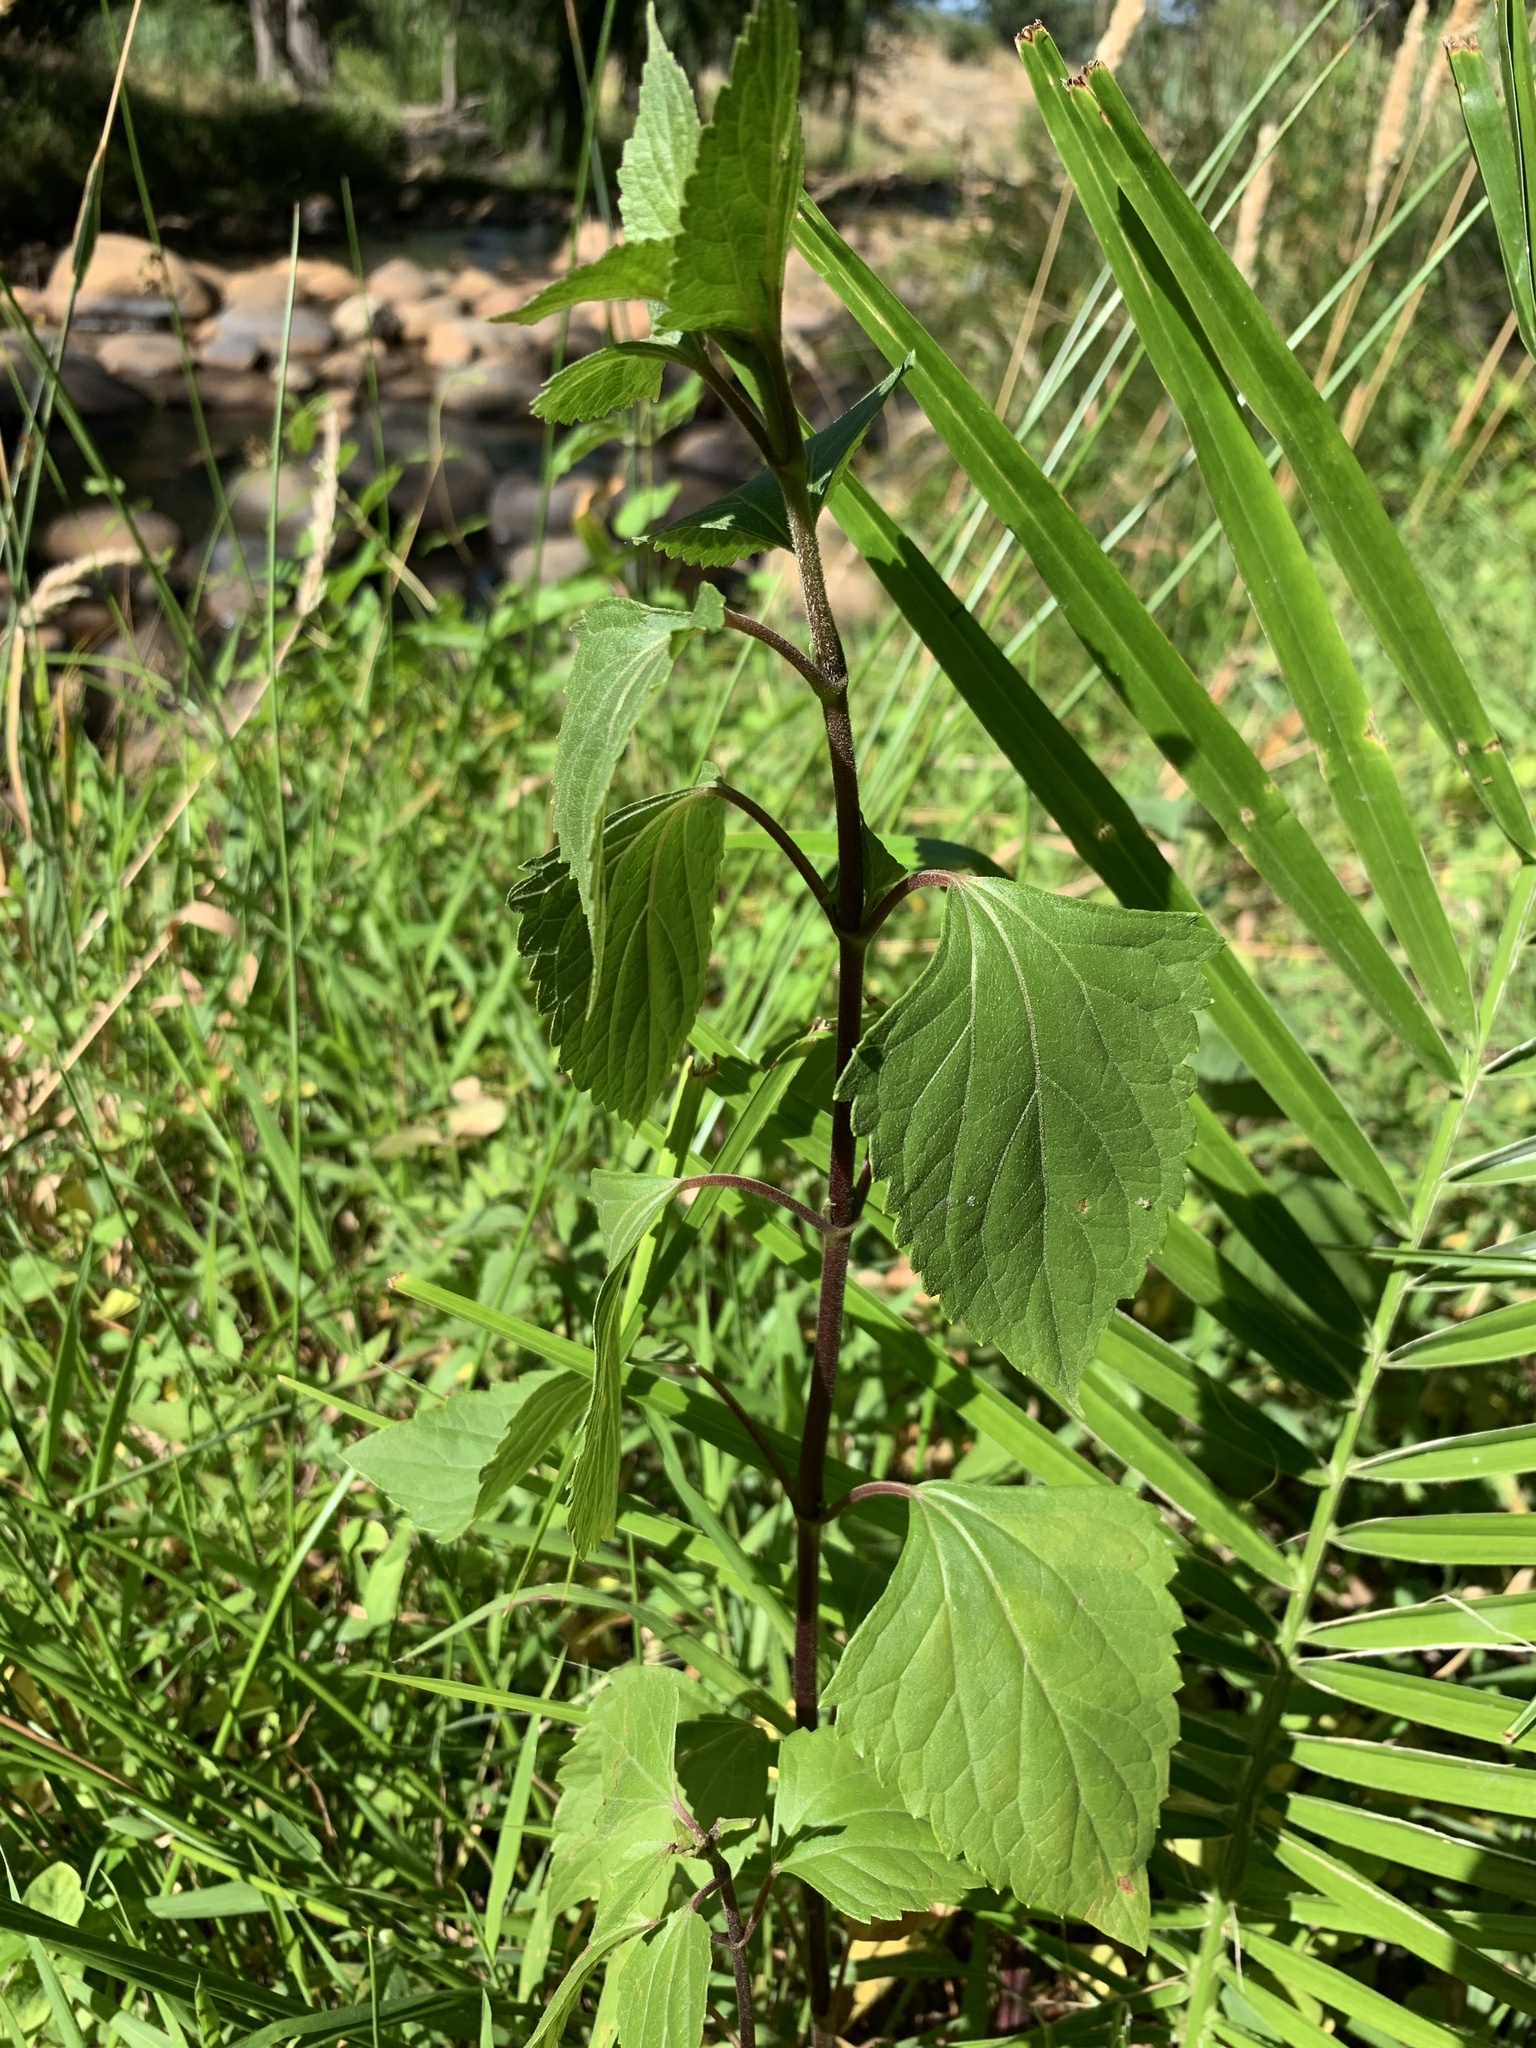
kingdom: Plantae
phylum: Tracheophyta
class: Magnoliopsida
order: Asterales
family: Asteraceae
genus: Ageratina
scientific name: Ageratina adenophora
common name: Sticky snakeroot
